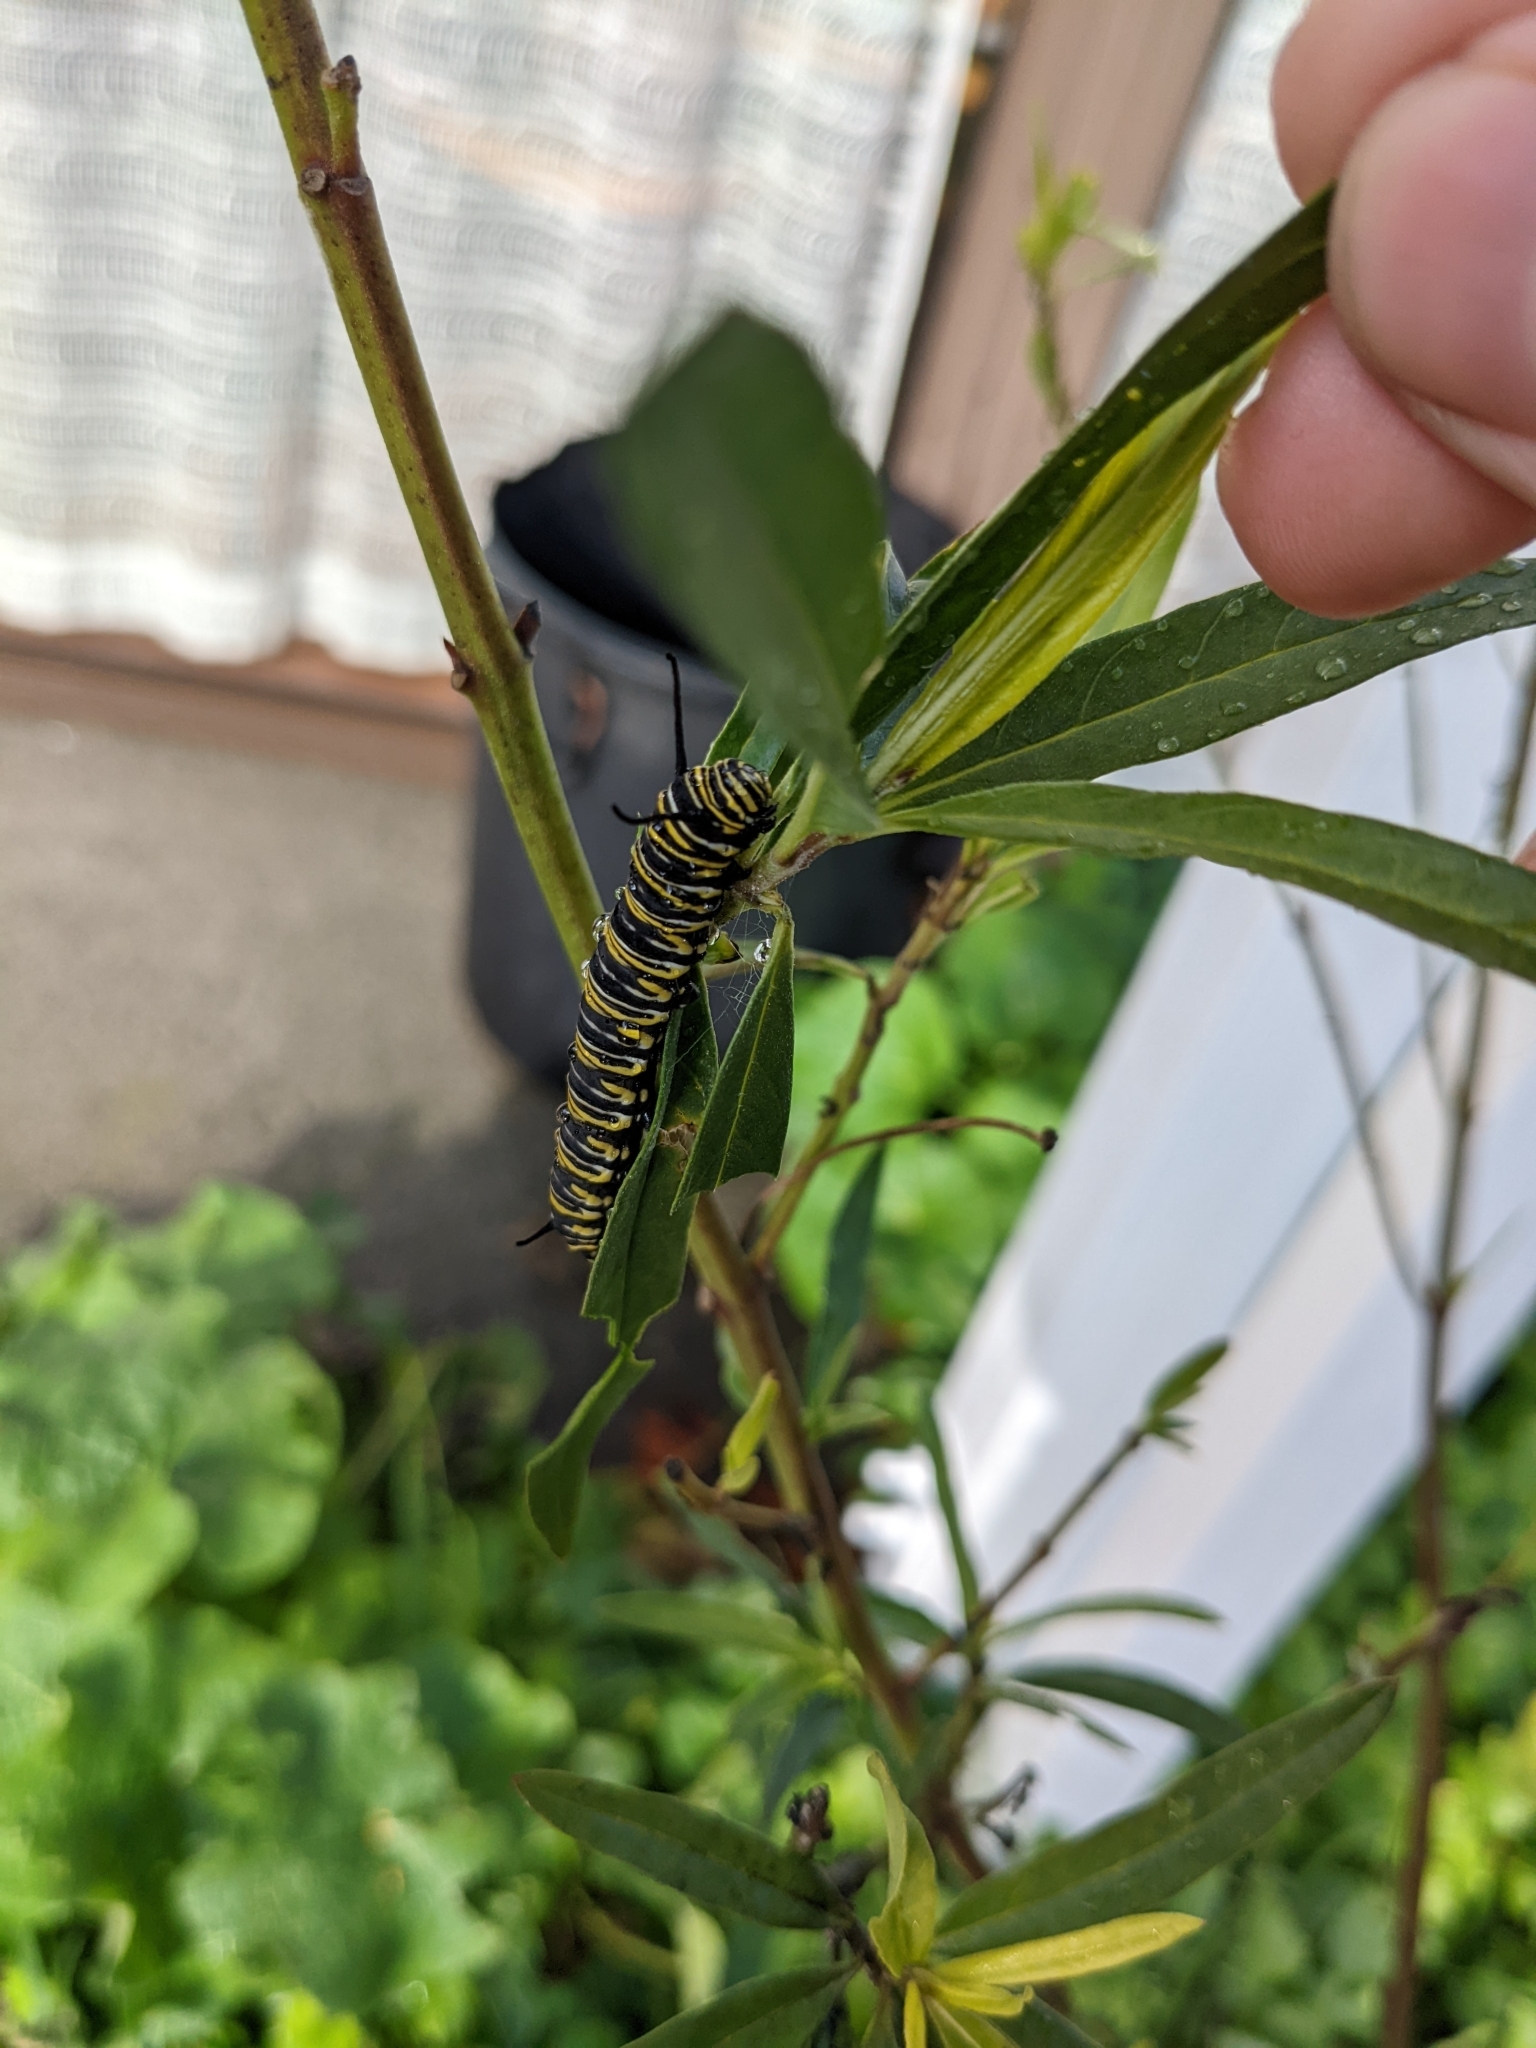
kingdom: Animalia
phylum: Arthropoda
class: Insecta
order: Lepidoptera
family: Nymphalidae
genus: Danaus
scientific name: Danaus plexippus
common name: Monarch
